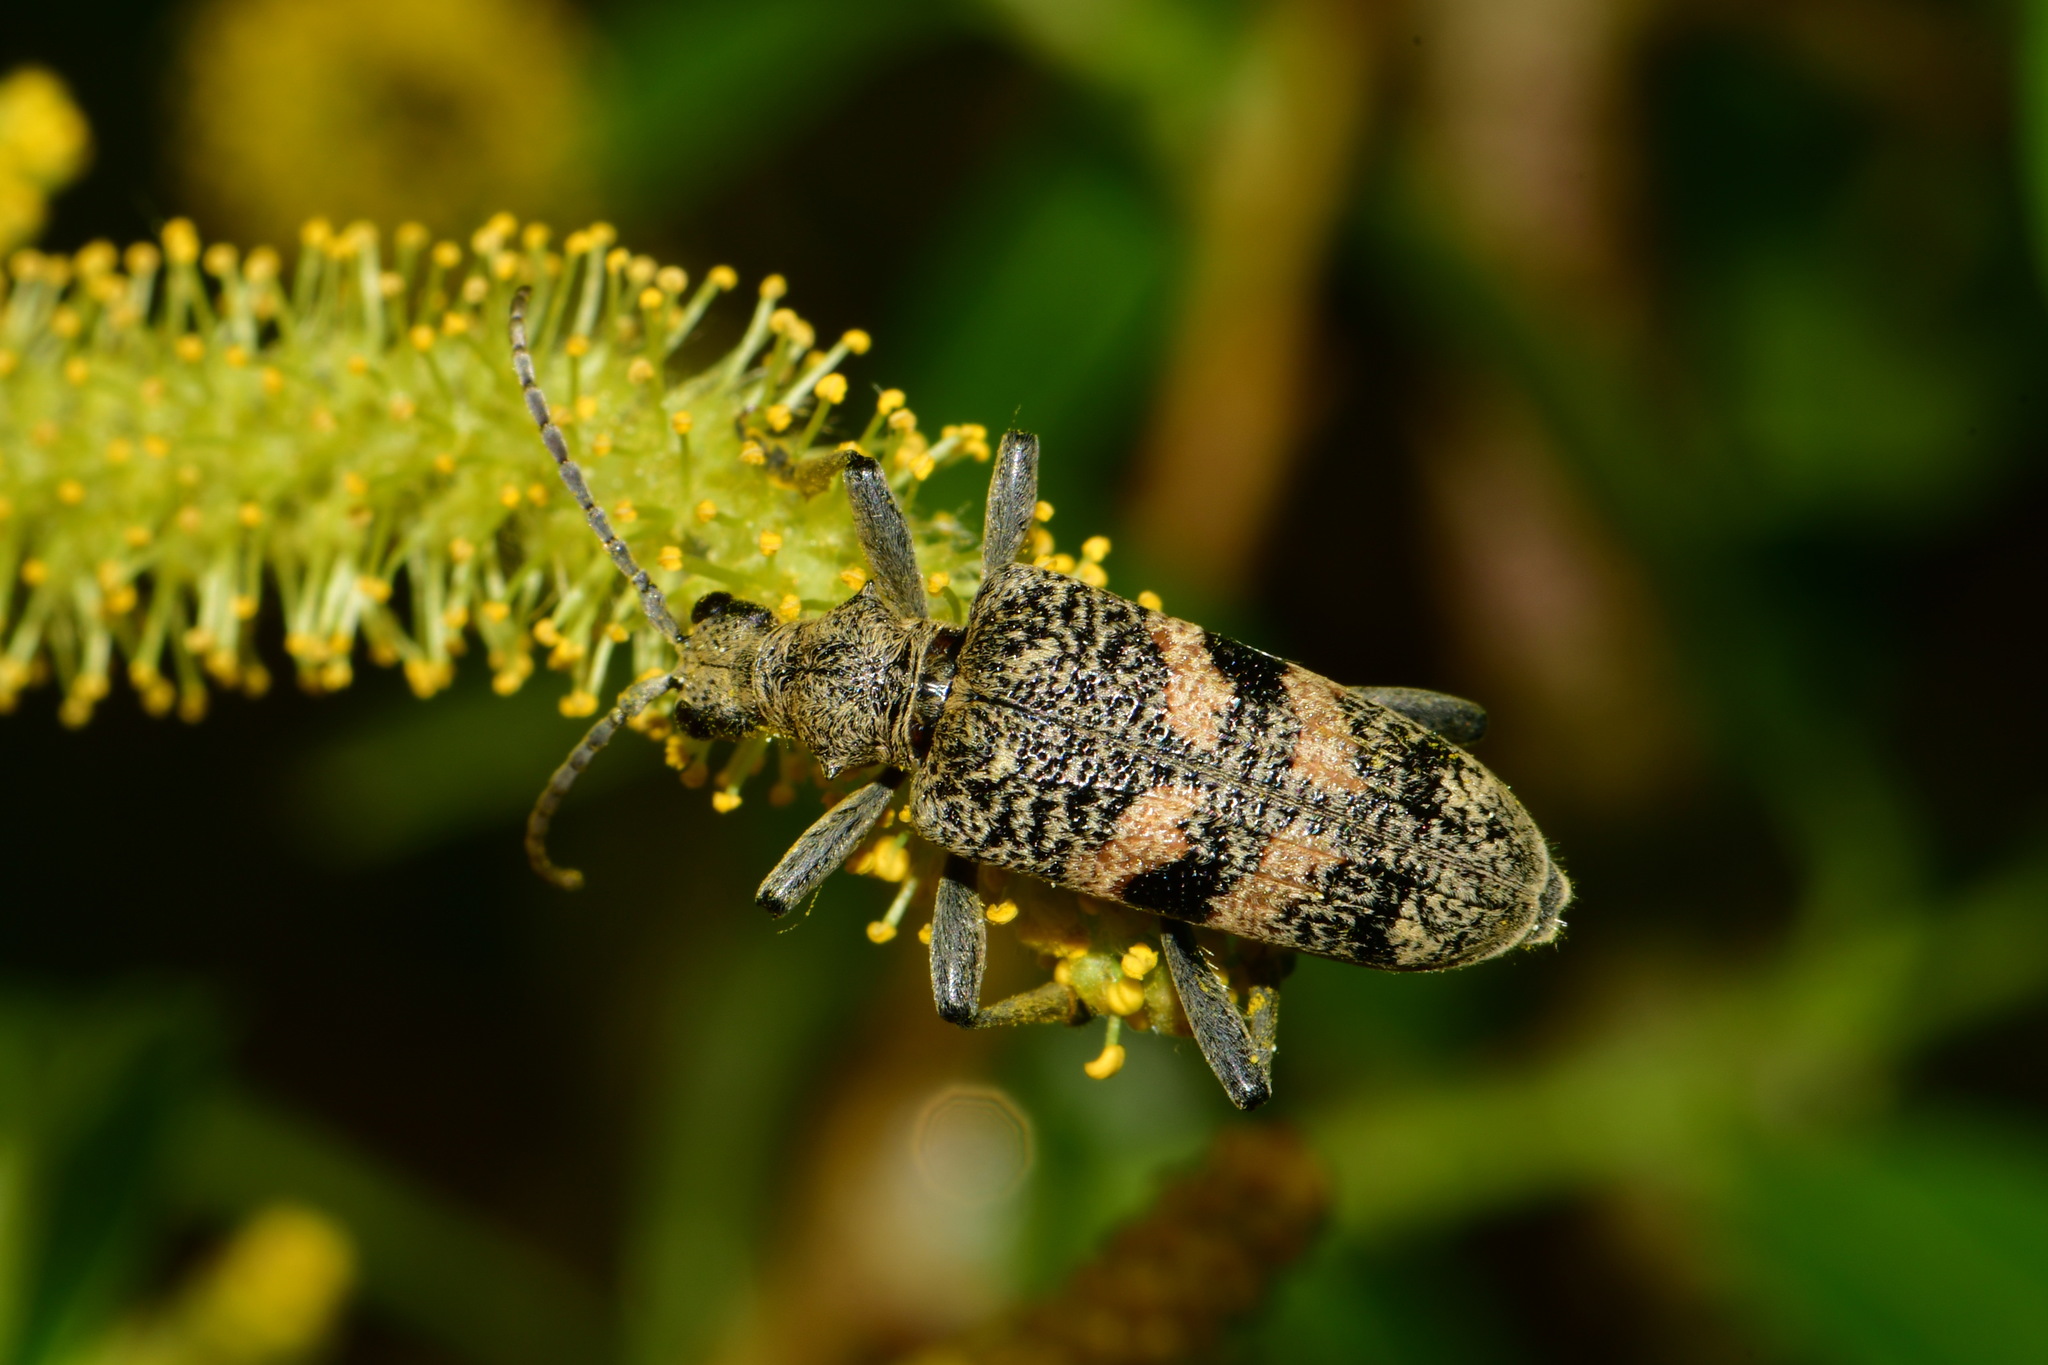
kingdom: Animalia
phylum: Arthropoda
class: Insecta
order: Coleoptera
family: Cerambycidae
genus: Rhagium
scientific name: Rhagium mordax
